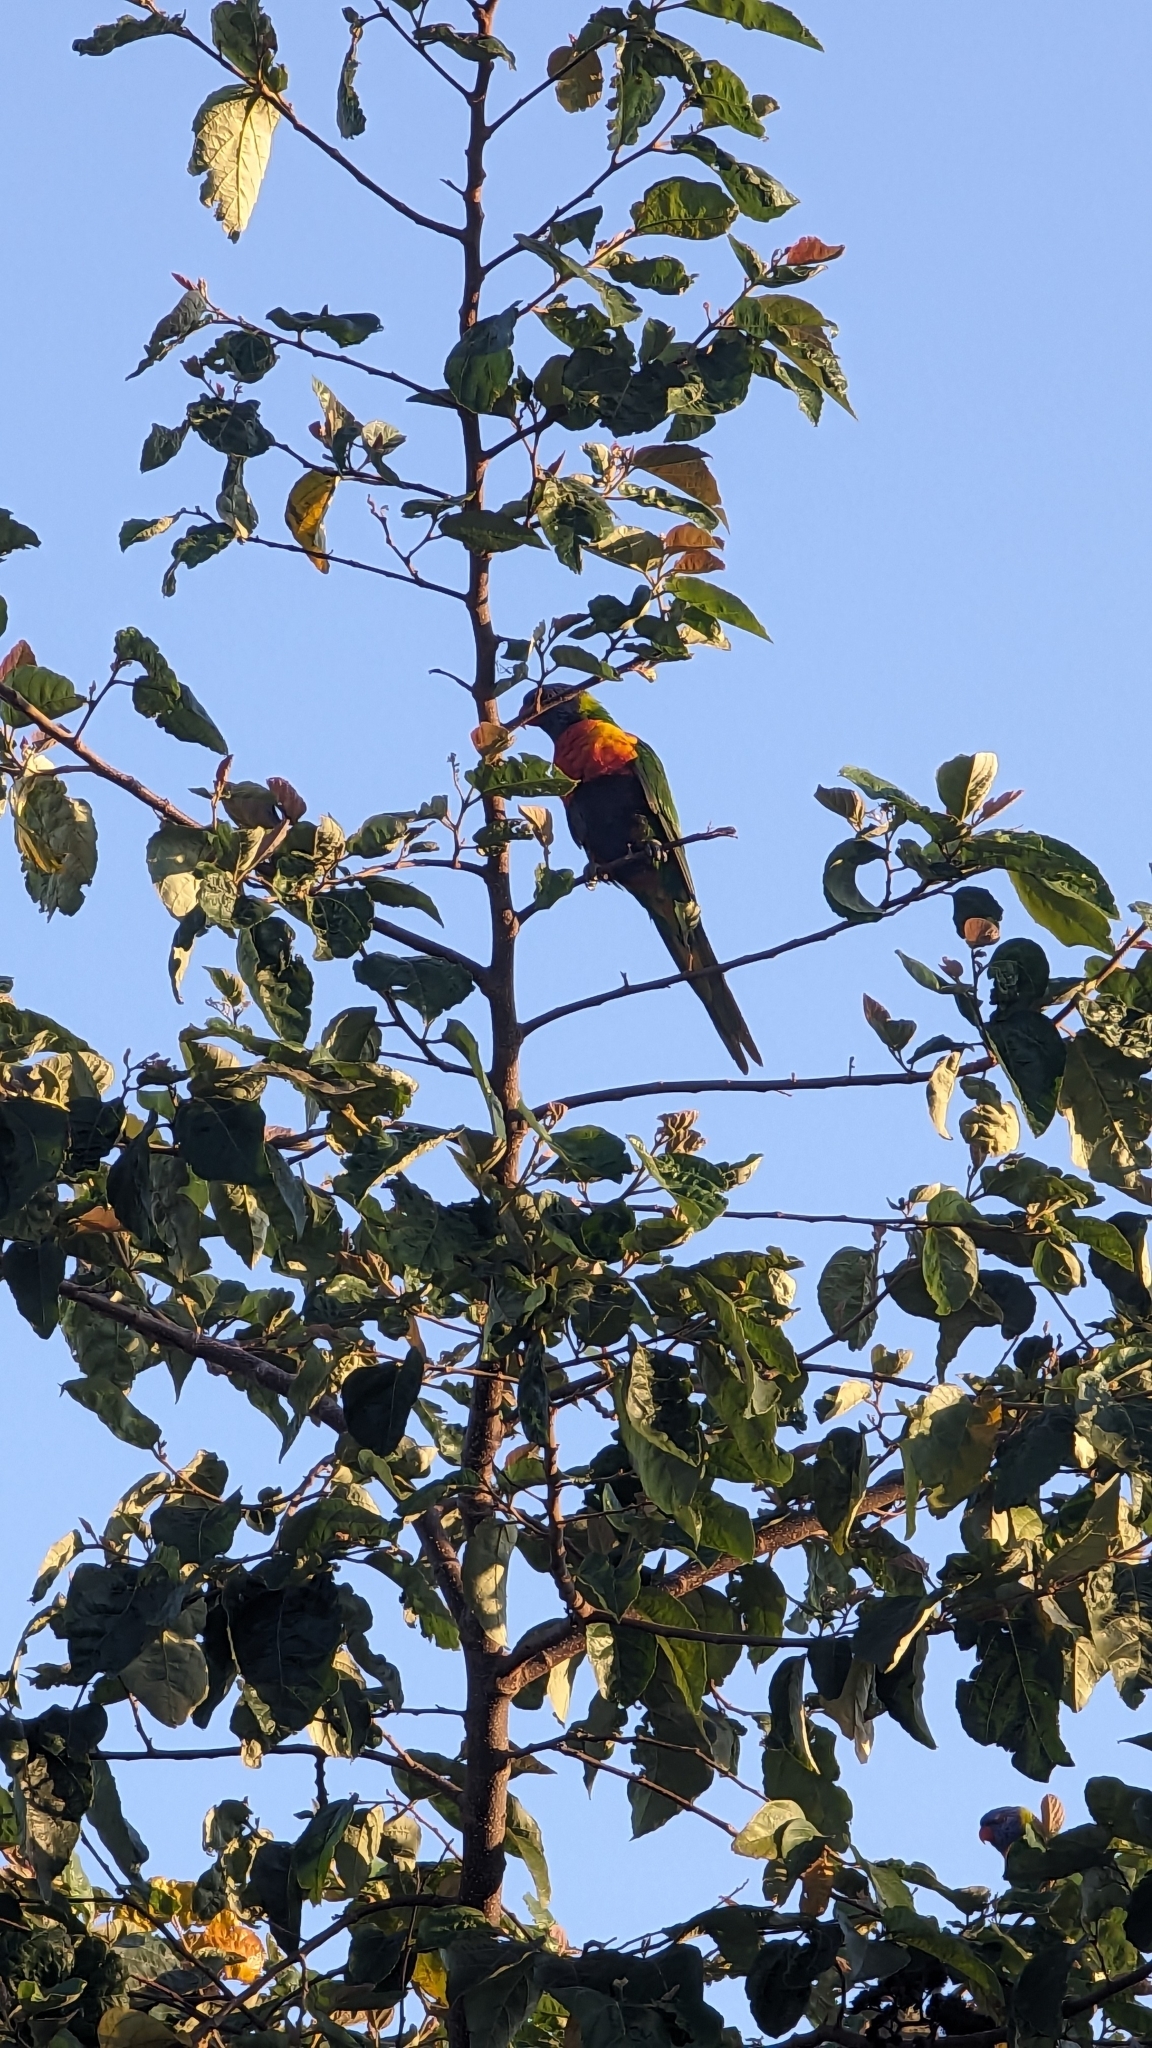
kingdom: Animalia
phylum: Chordata
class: Aves
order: Psittaciformes
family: Psittacidae
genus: Trichoglossus
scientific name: Trichoglossus haematodus
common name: Coconut lorikeet
